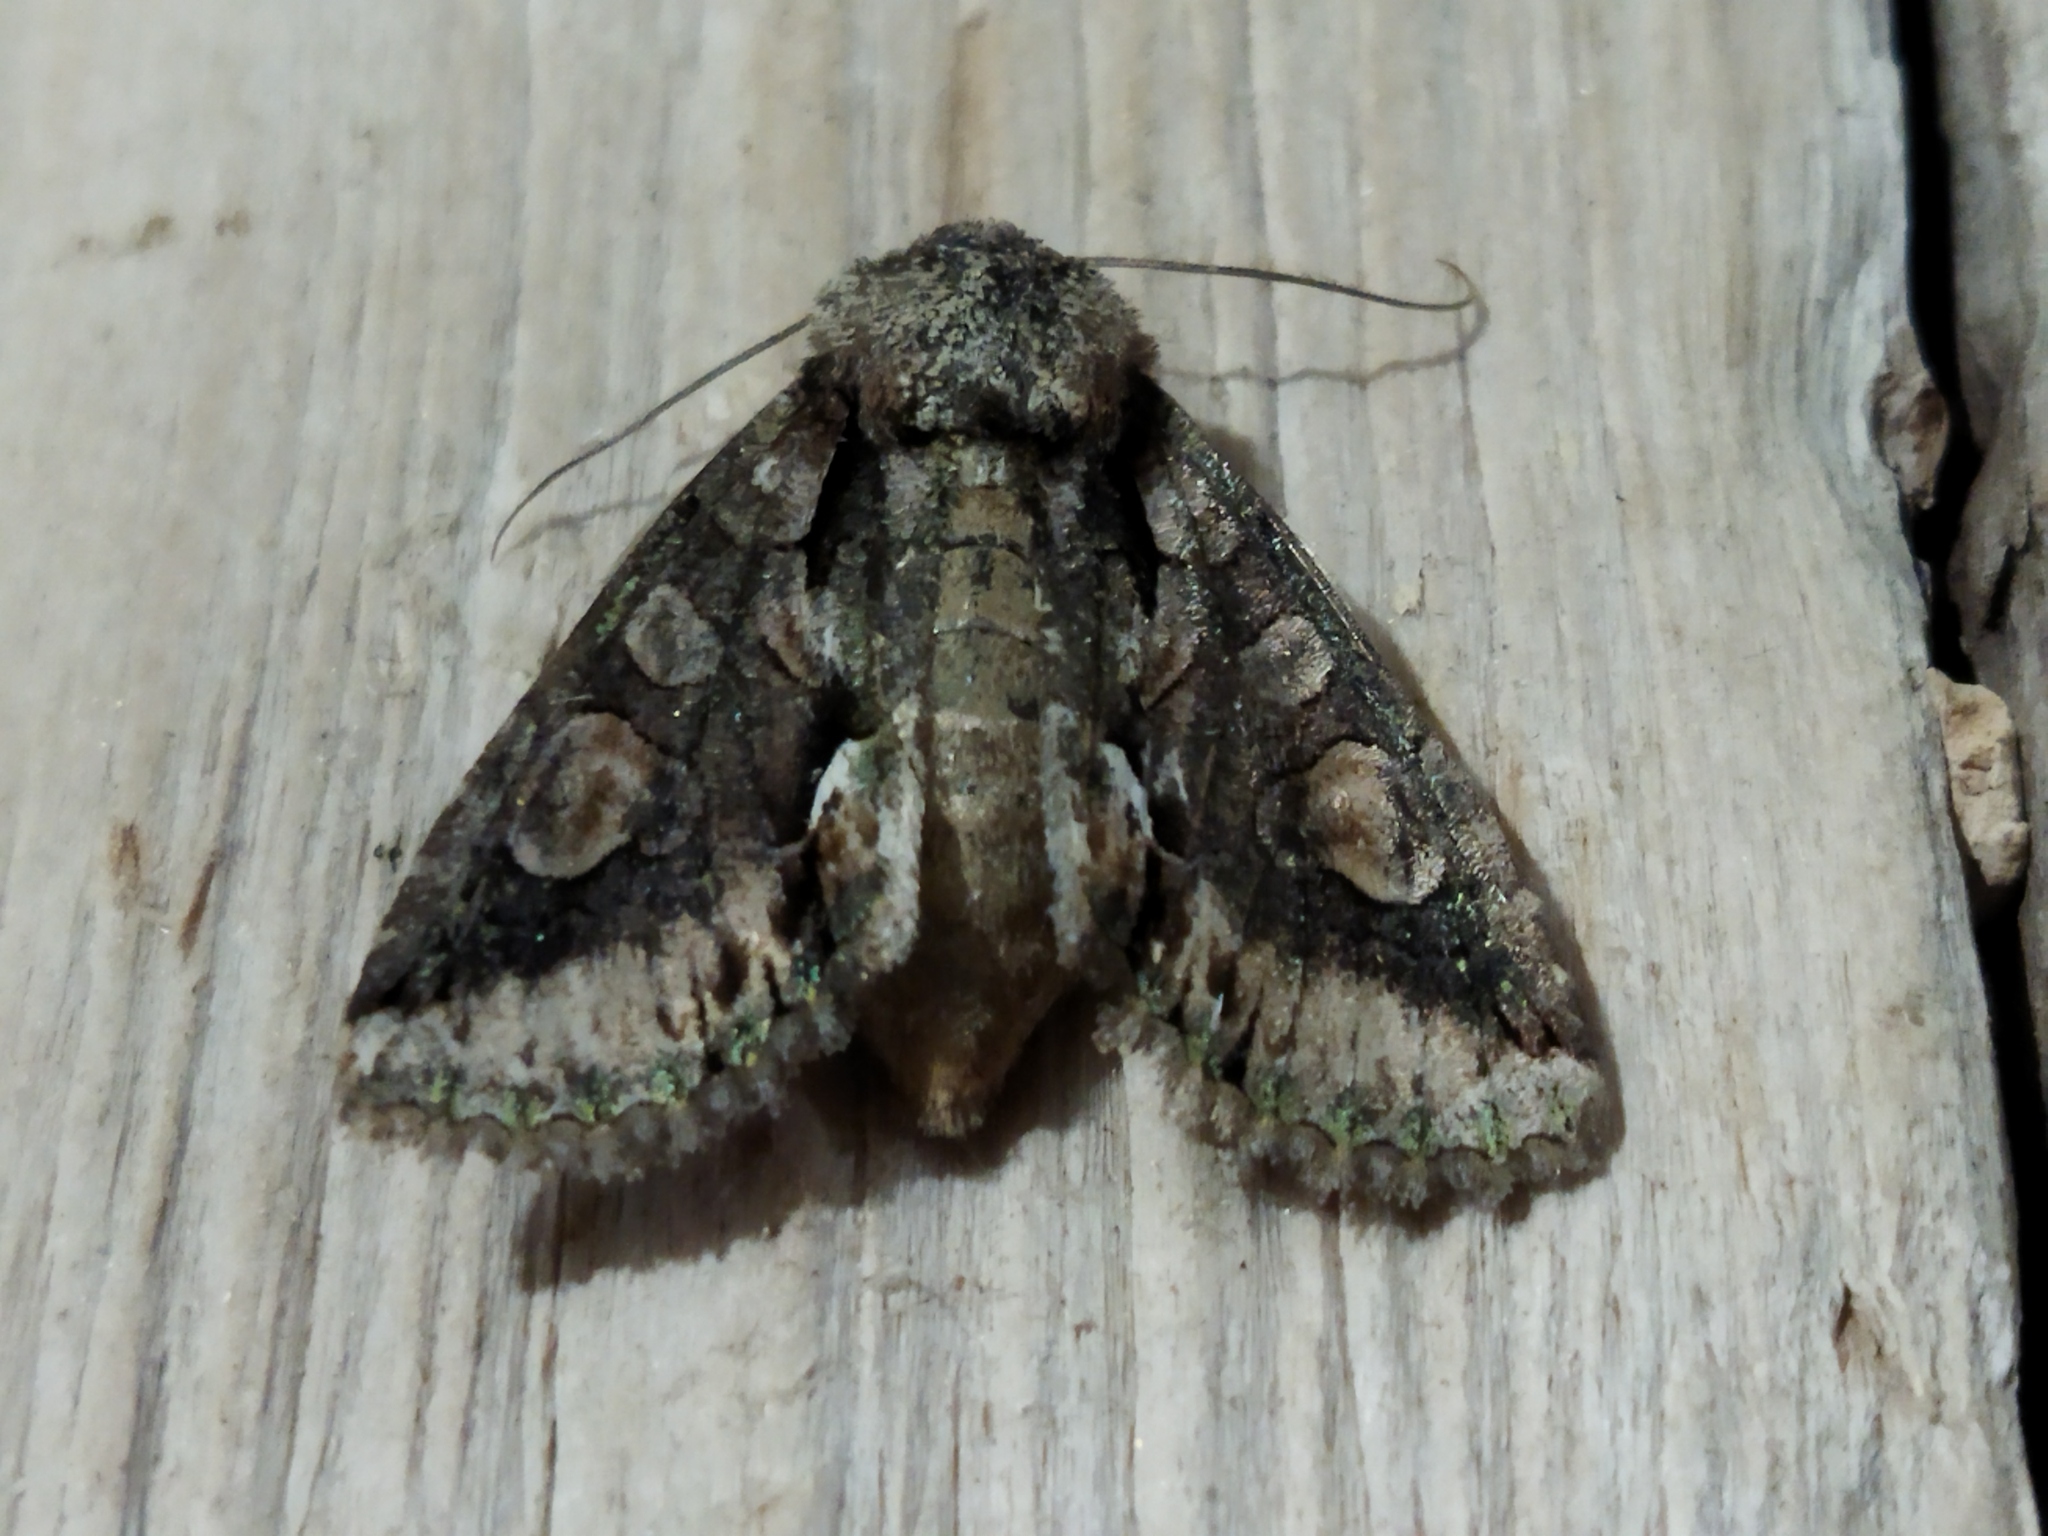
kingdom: Animalia
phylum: Arthropoda
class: Insecta
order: Lepidoptera
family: Noctuidae
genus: Allophyes
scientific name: Allophyes oxyacanthae
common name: Green-brindled crescent
